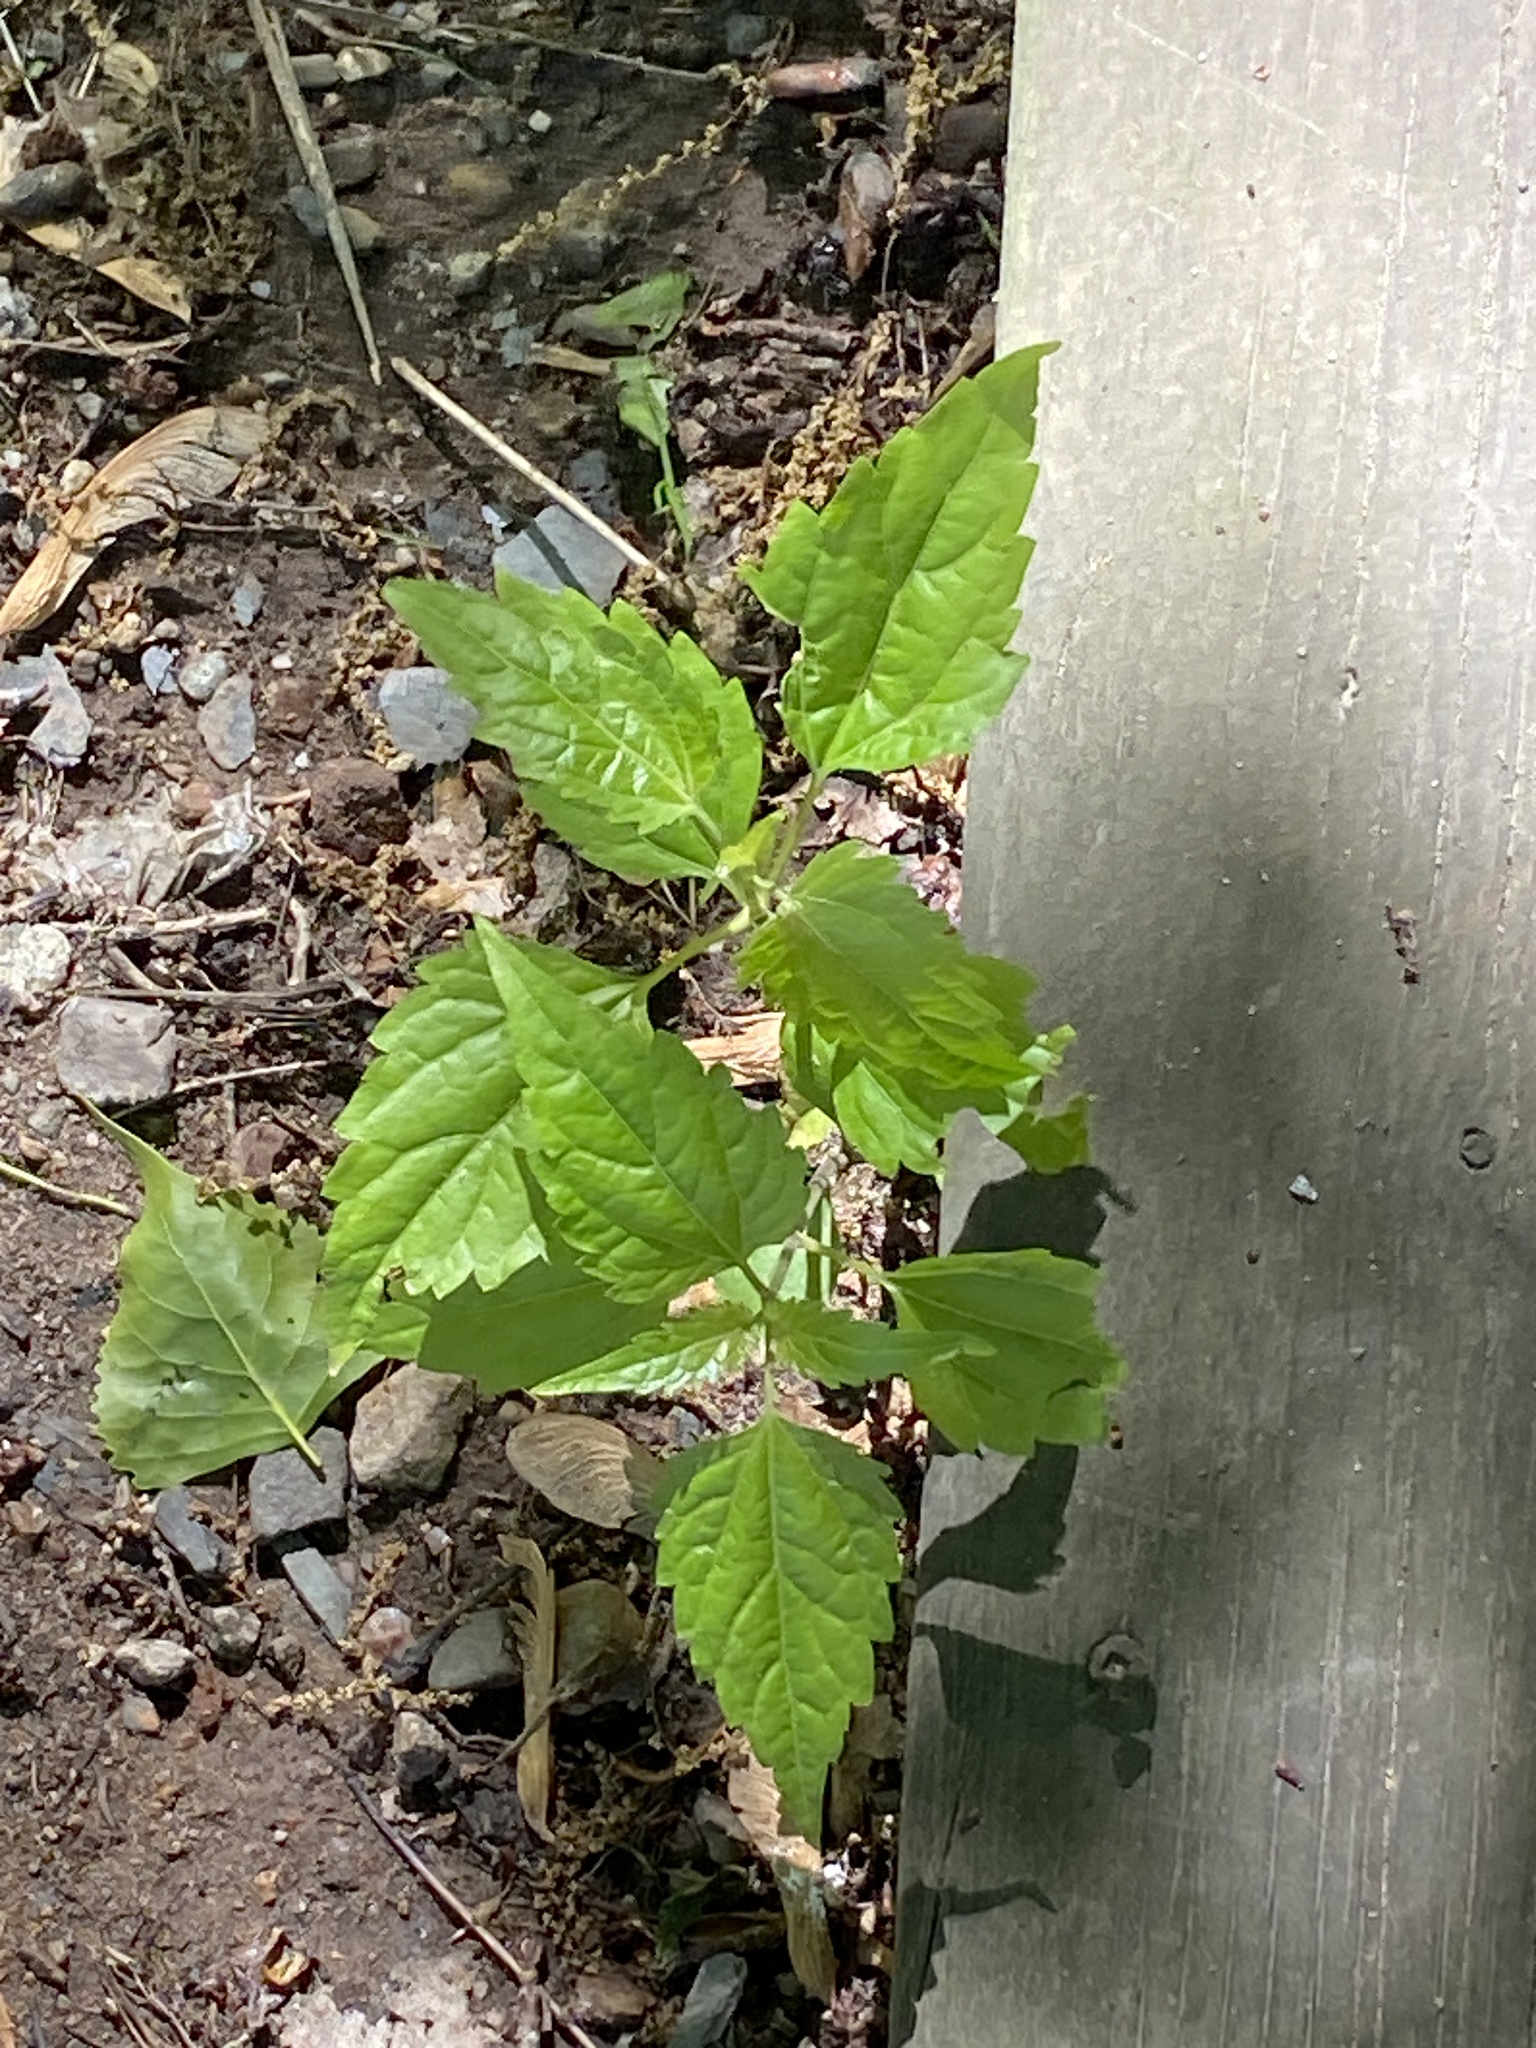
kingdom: Plantae
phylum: Tracheophyta
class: Magnoliopsida
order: Asterales
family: Asteraceae
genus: Ageratina
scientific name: Ageratina altissima
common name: White snakeroot
